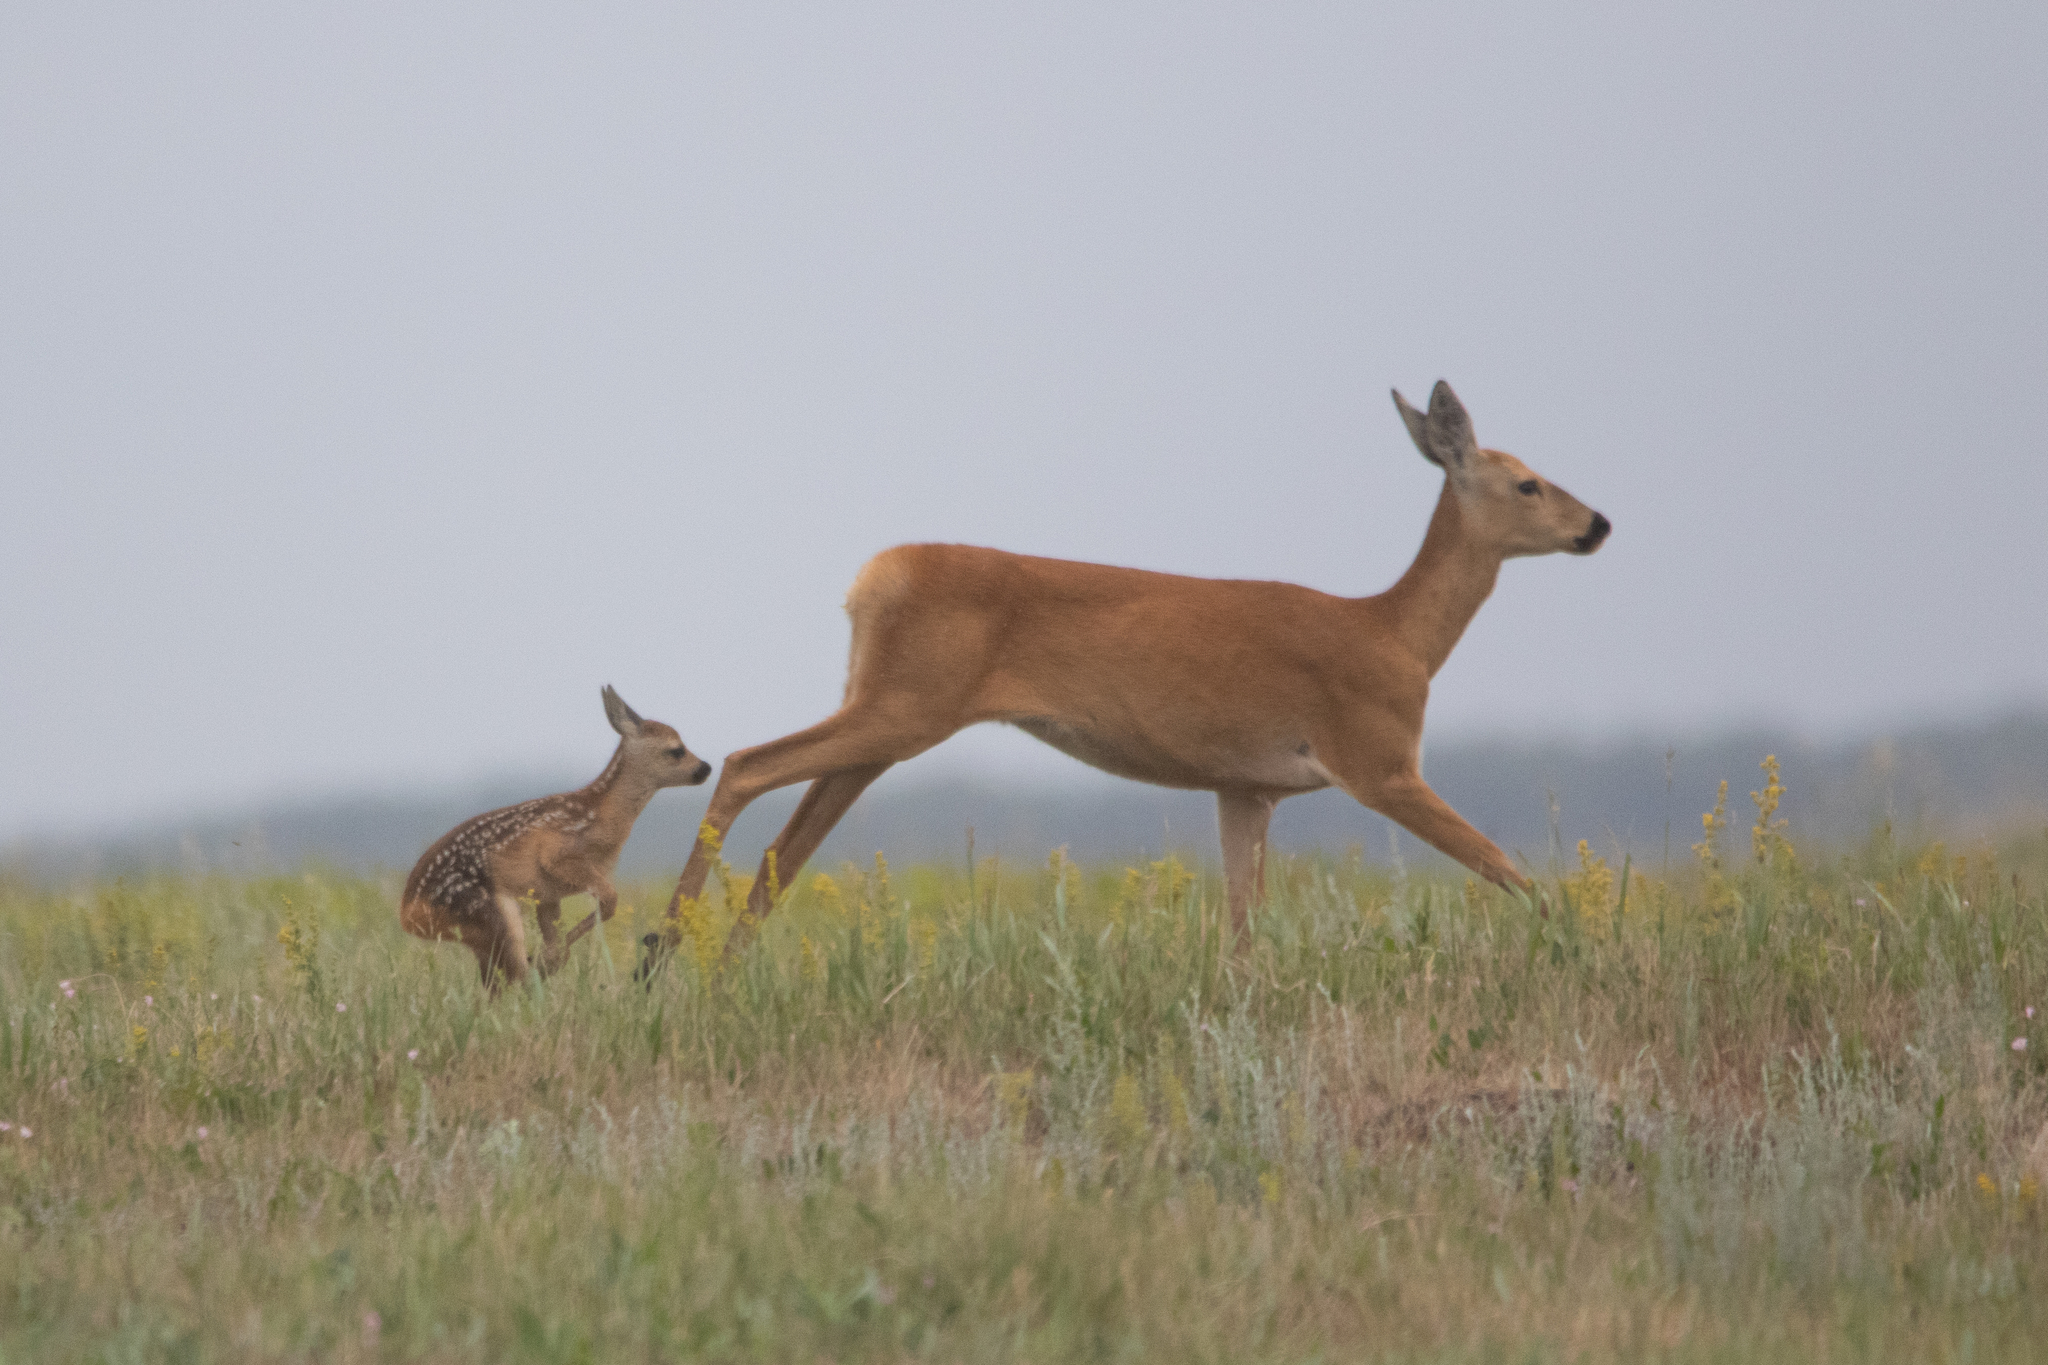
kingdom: Animalia
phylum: Chordata
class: Mammalia
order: Artiodactyla
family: Cervidae
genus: Capreolus
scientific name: Capreolus pygargus
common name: Siberian roe
